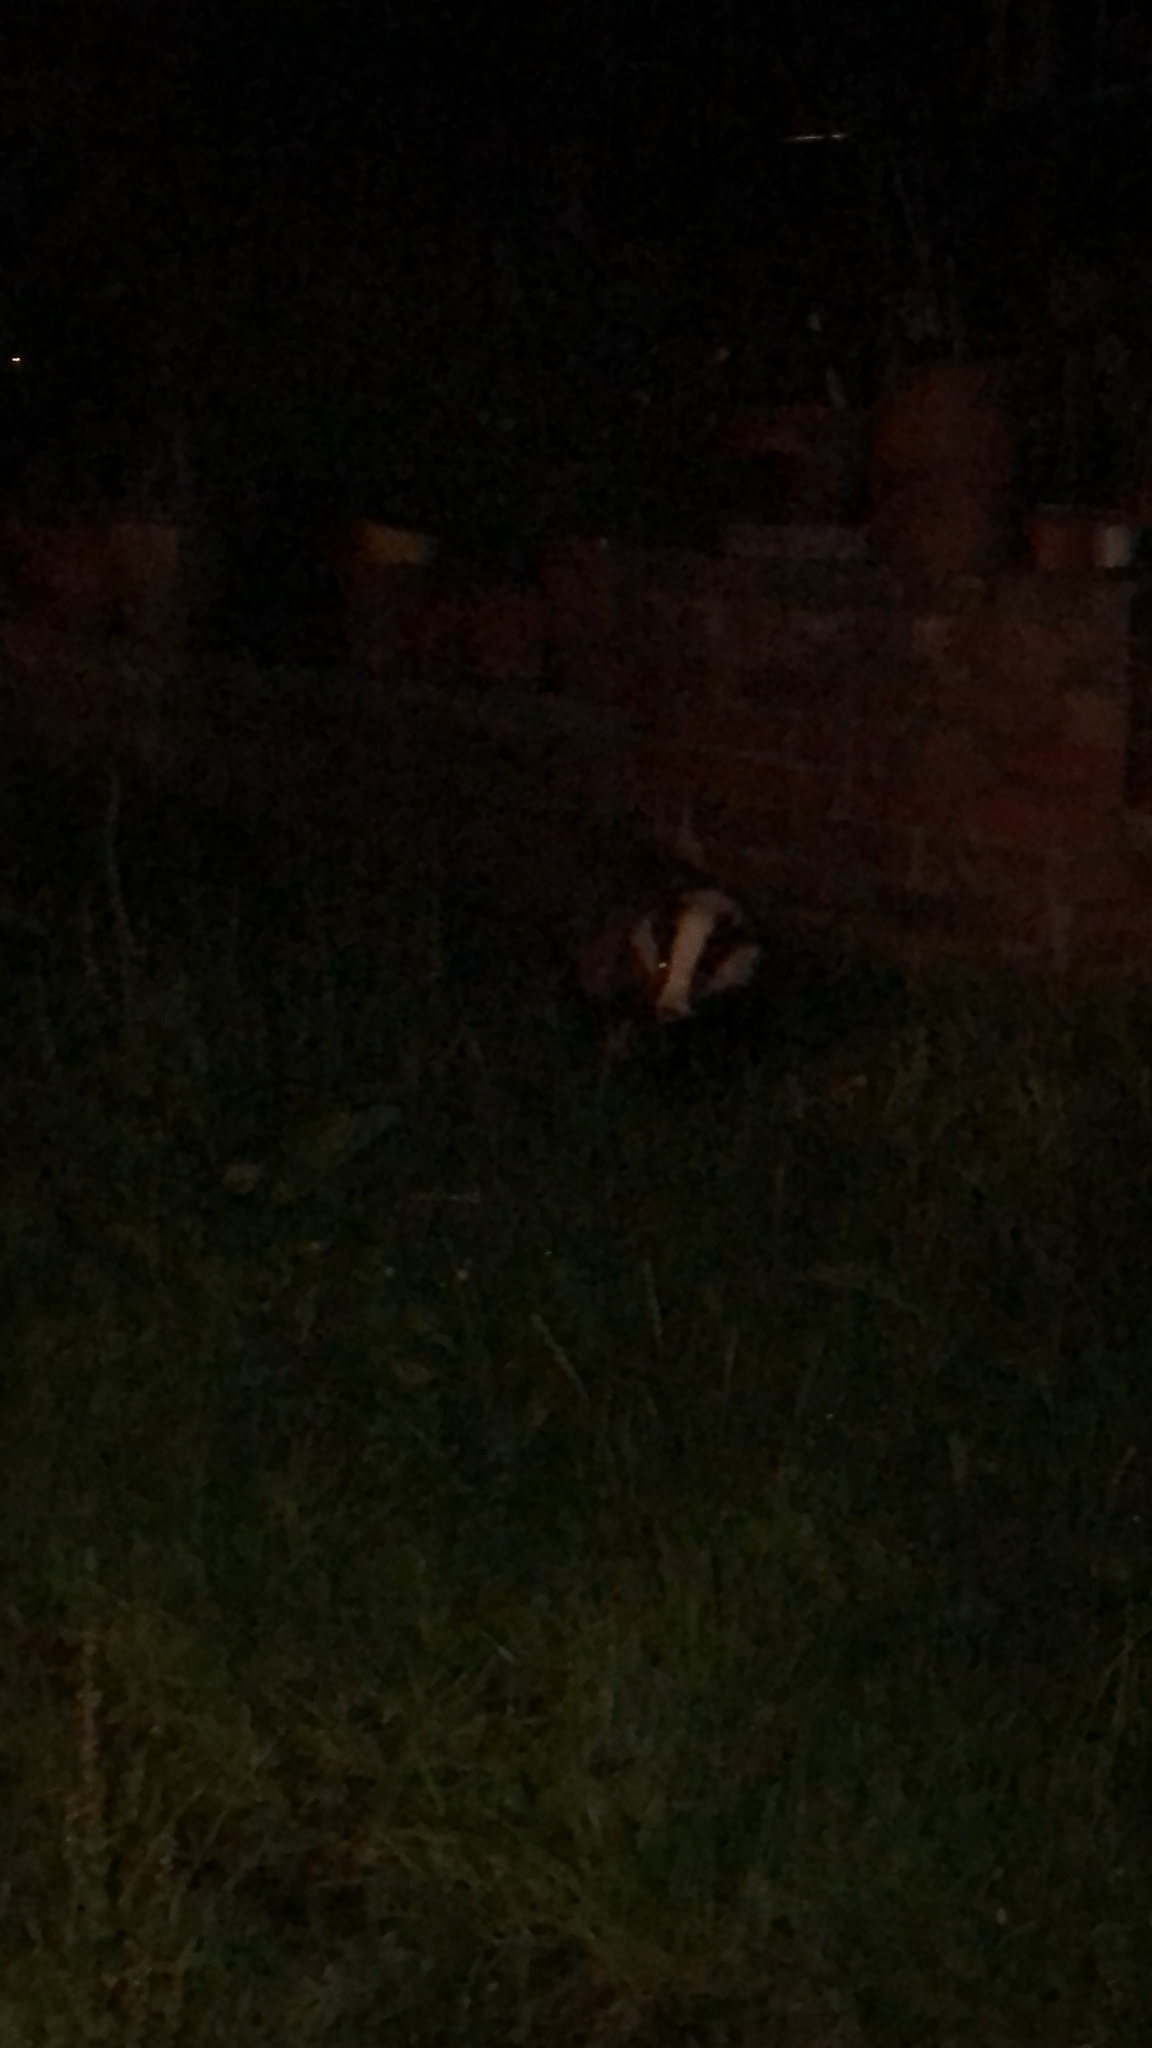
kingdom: Animalia
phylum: Chordata
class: Mammalia
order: Carnivora
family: Mustelidae
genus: Meles
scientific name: Meles meles
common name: Eurasian badger
